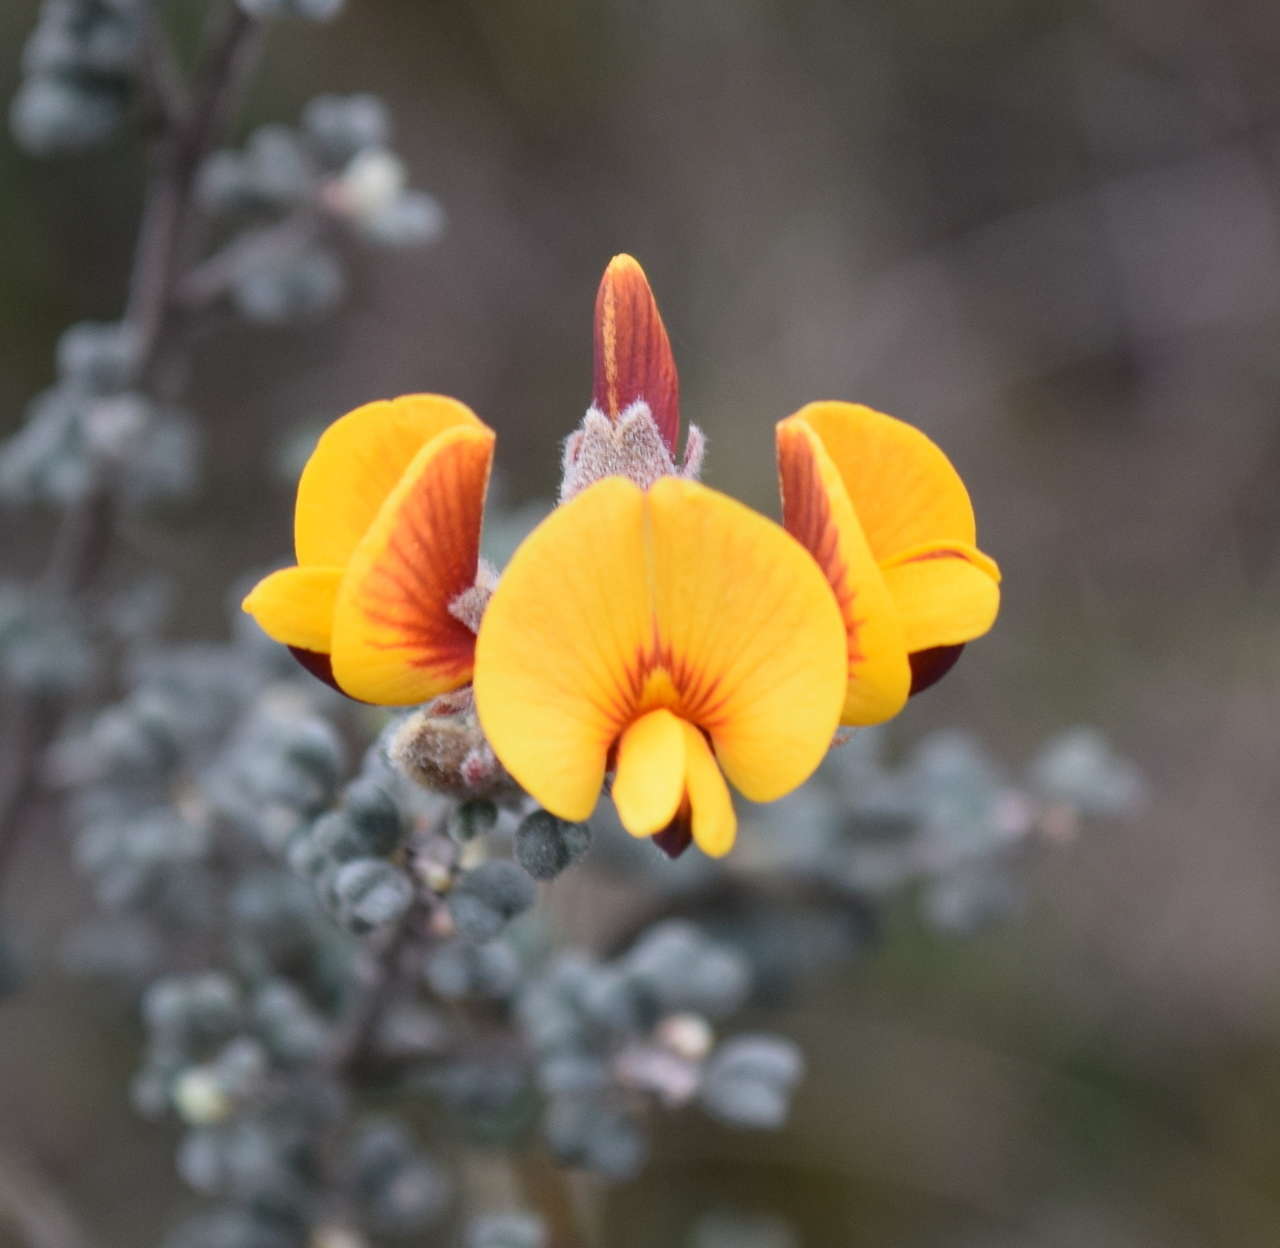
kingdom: Plantae
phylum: Tracheophyta
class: Magnoliopsida
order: Fabales
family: Fabaceae
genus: Pultenaea
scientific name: Pultenaea scabra
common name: Rough bush-pea
